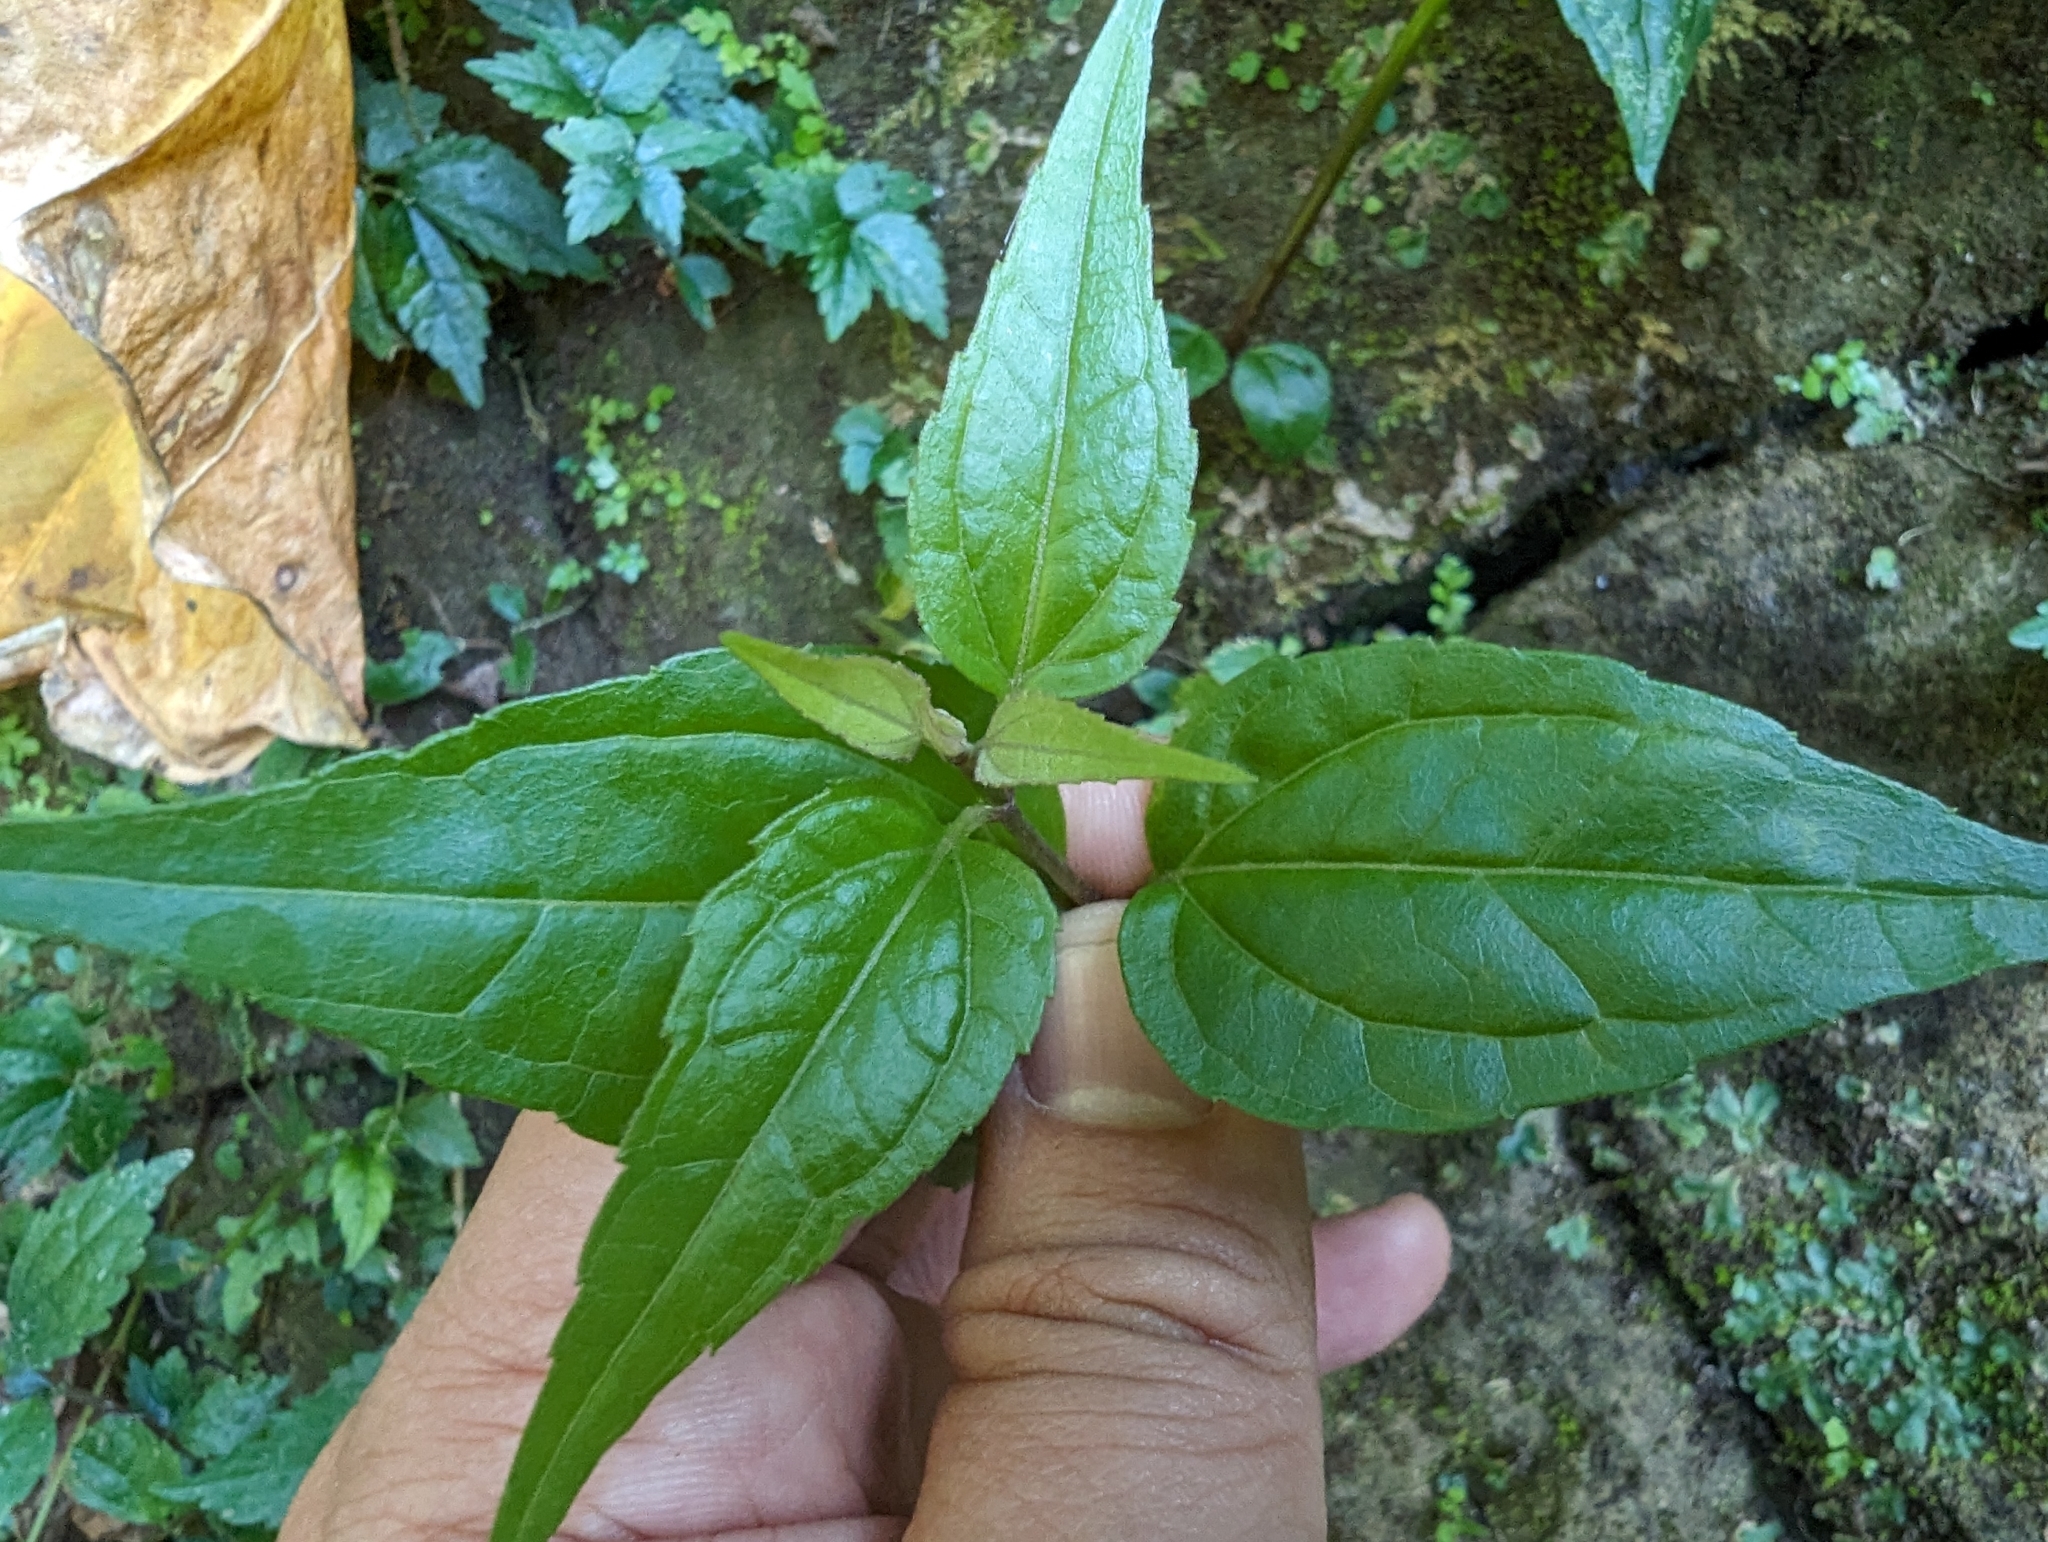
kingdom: Plantae
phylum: Tracheophyta
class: Magnoliopsida
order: Asterales
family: Asteraceae
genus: Eupatorium
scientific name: Eupatorium tashiroi
